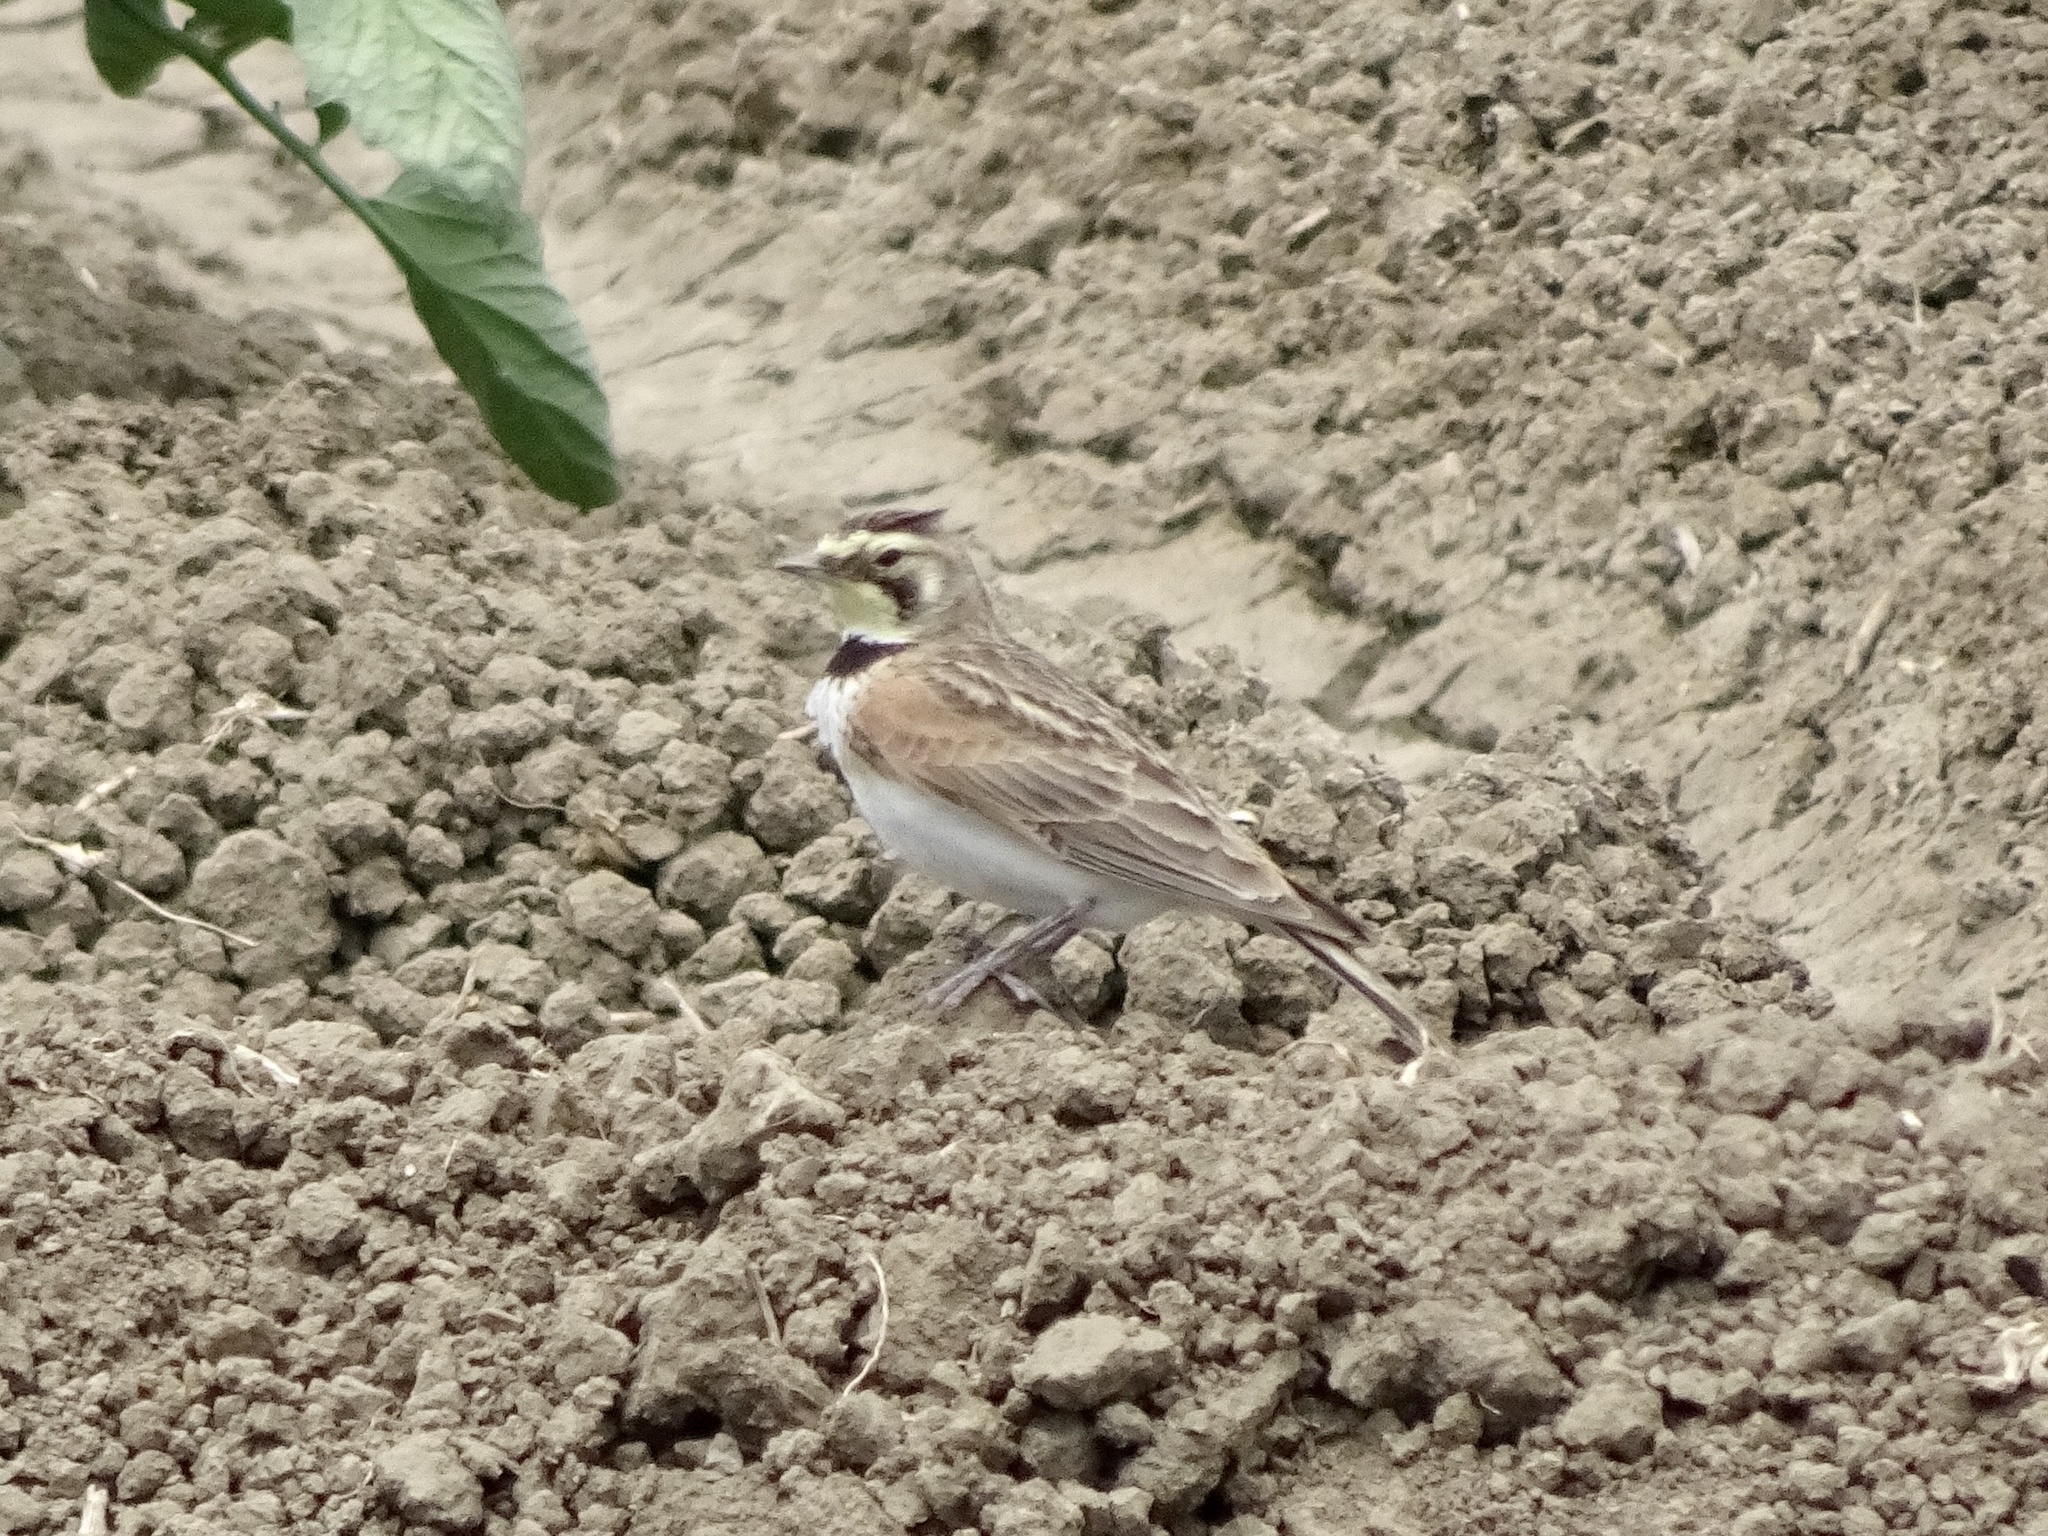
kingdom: Animalia
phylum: Chordata
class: Aves
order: Passeriformes
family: Alaudidae
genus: Eremophila
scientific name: Eremophila alpestris
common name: Horned lark
